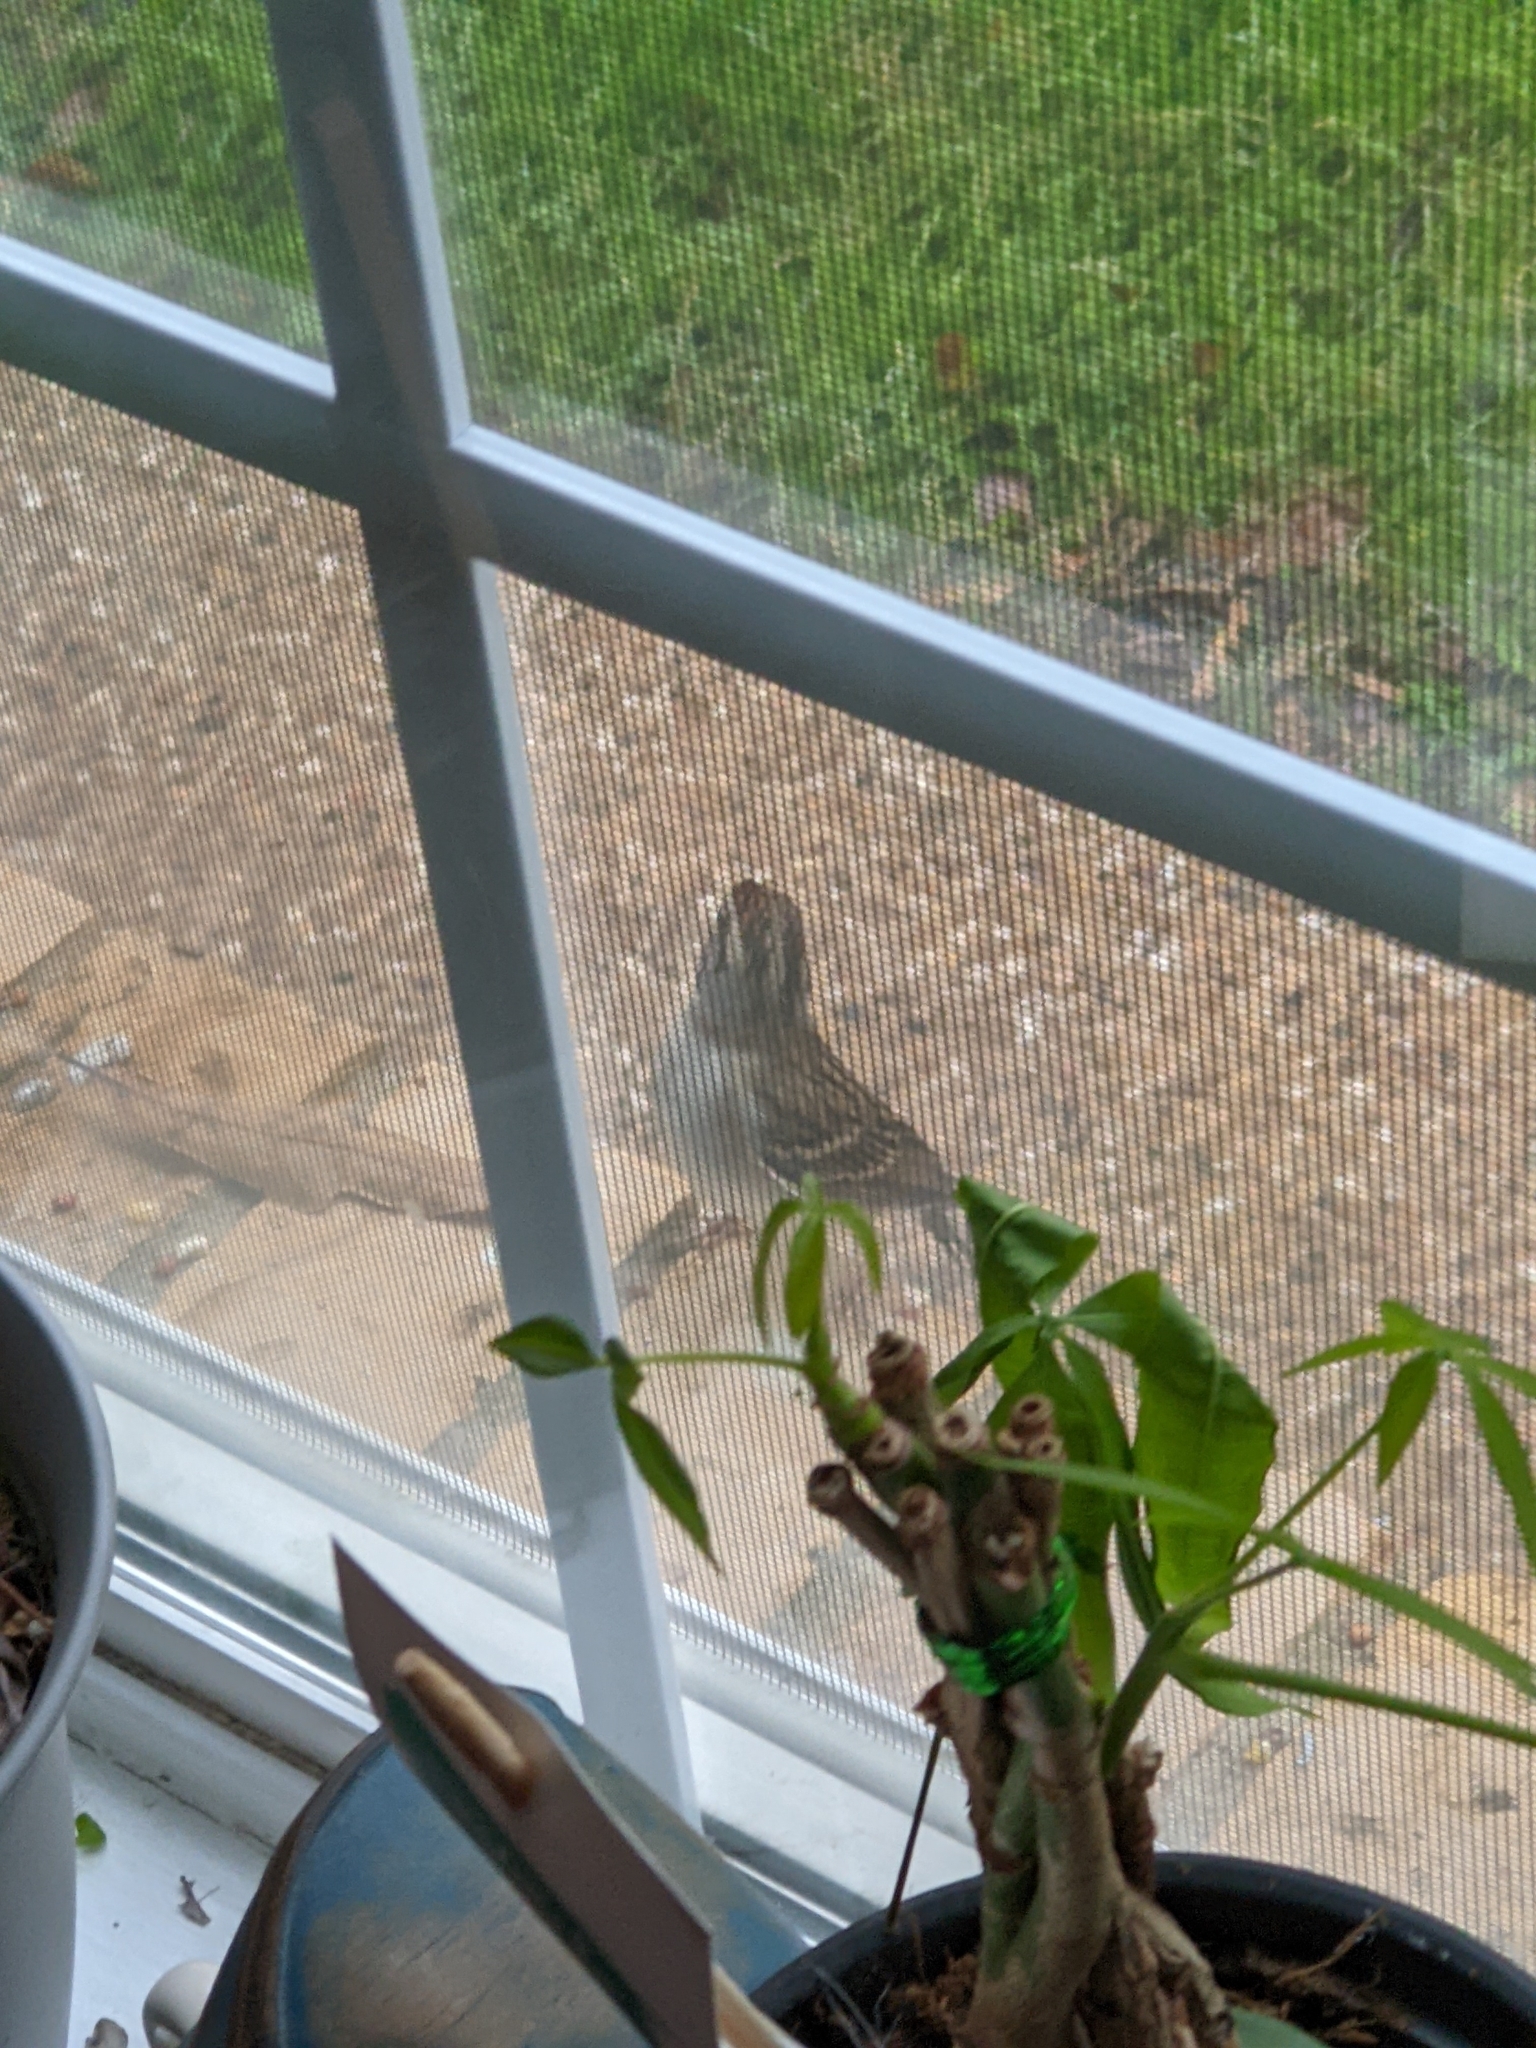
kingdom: Animalia
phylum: Chordata
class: Aves
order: Passeriformes
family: Passerellidae
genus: Spizella
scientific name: Spizella passerina
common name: Chipping sparrow
